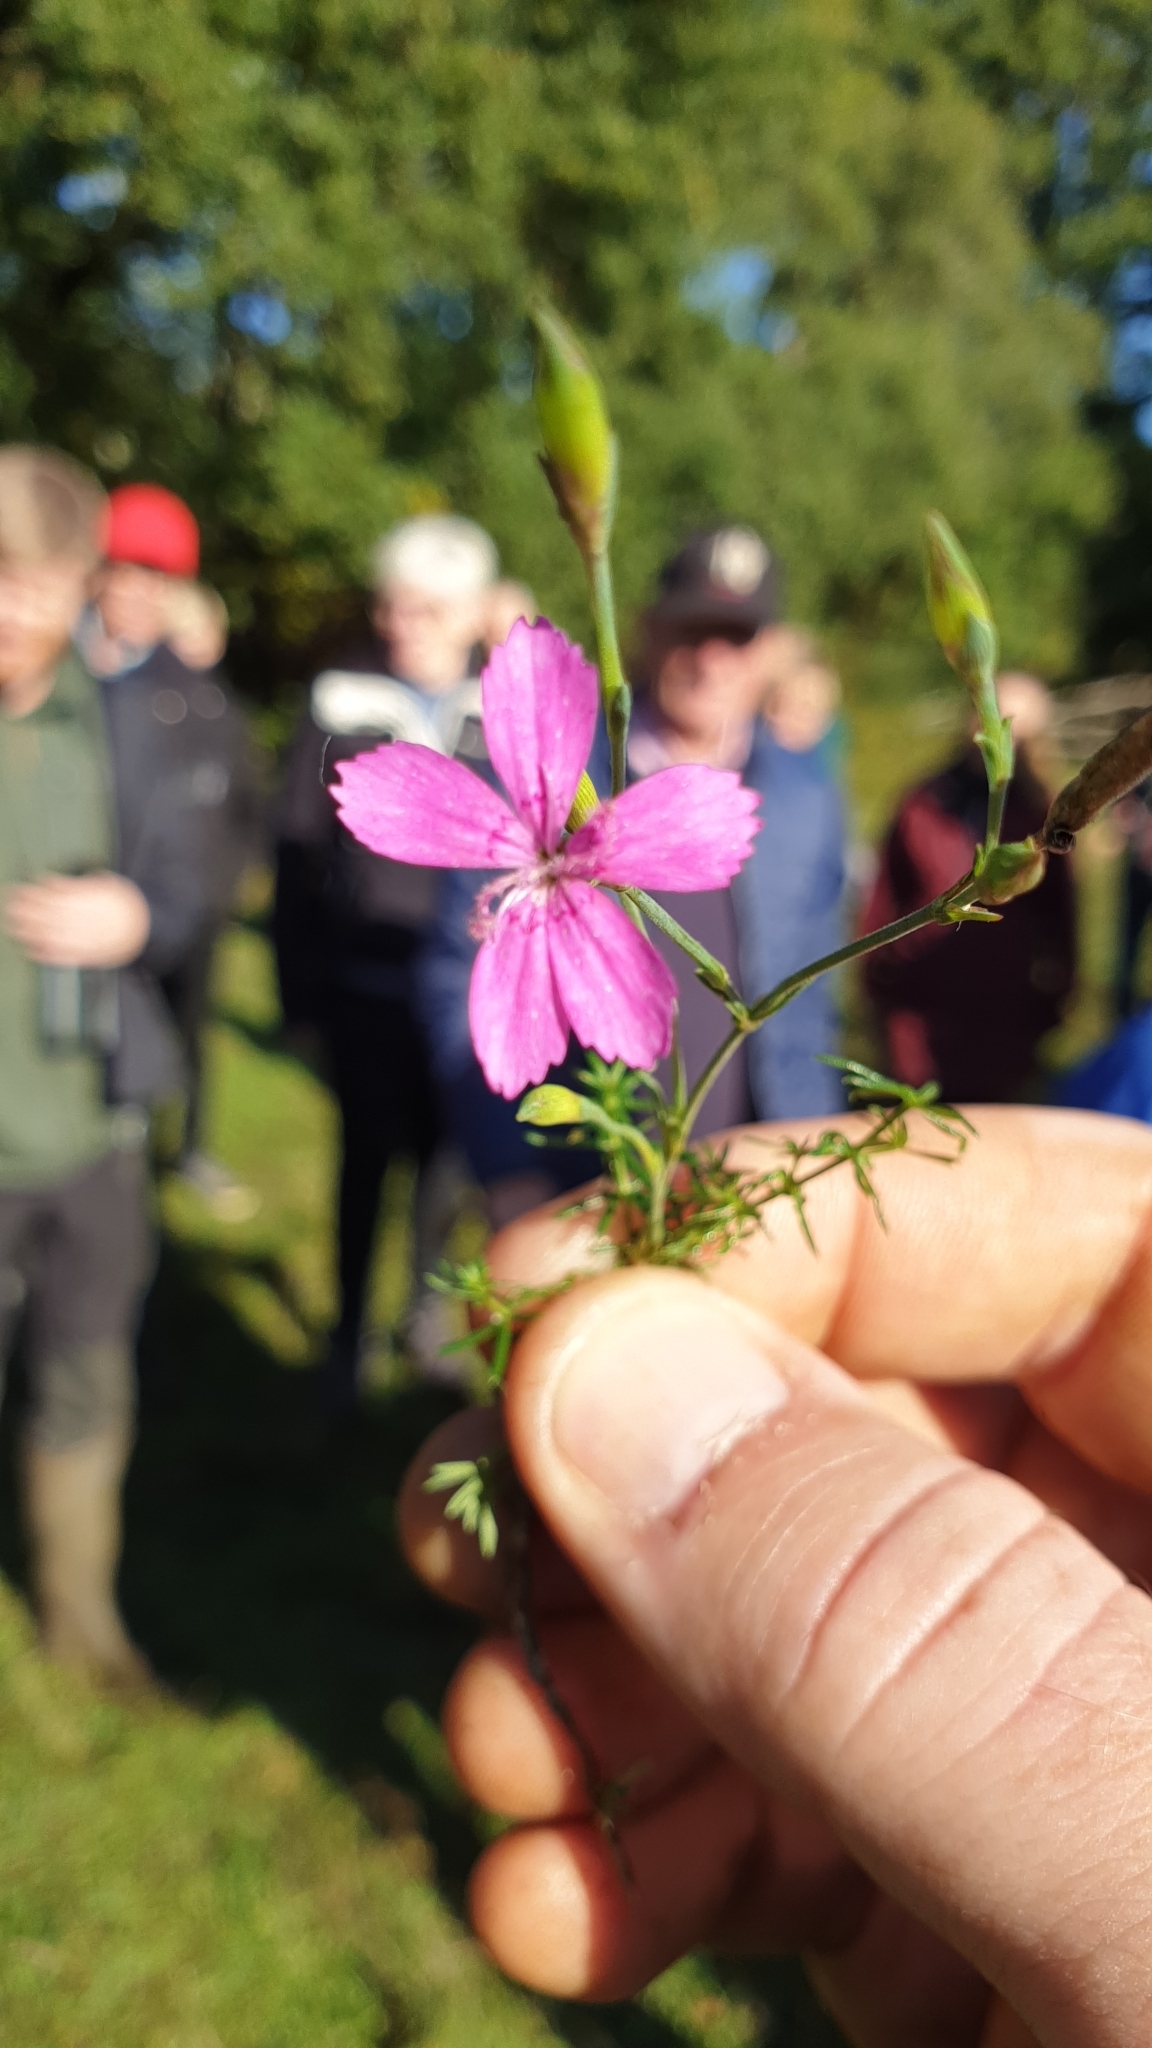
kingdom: Plantae
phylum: Tracheophyta
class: Magnoliopsida
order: Caryophyllales
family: Caryophyllaceae
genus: Dianthus
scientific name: Dianthus deltoides
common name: Maiden pink
